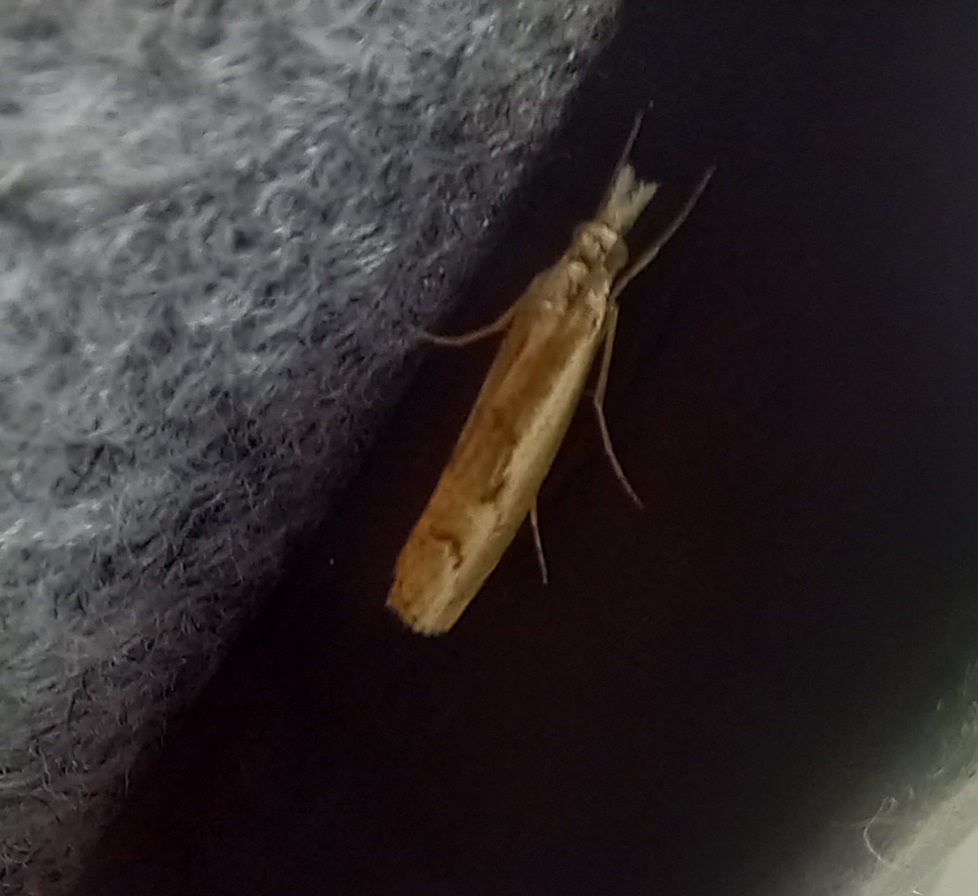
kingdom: Animalia
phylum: Arthropoda
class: Insecta
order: Lepidoptera
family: Crambidae
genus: Agriphila
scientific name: Agriphila geniculea
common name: Elbow-stripe grass-veneer
